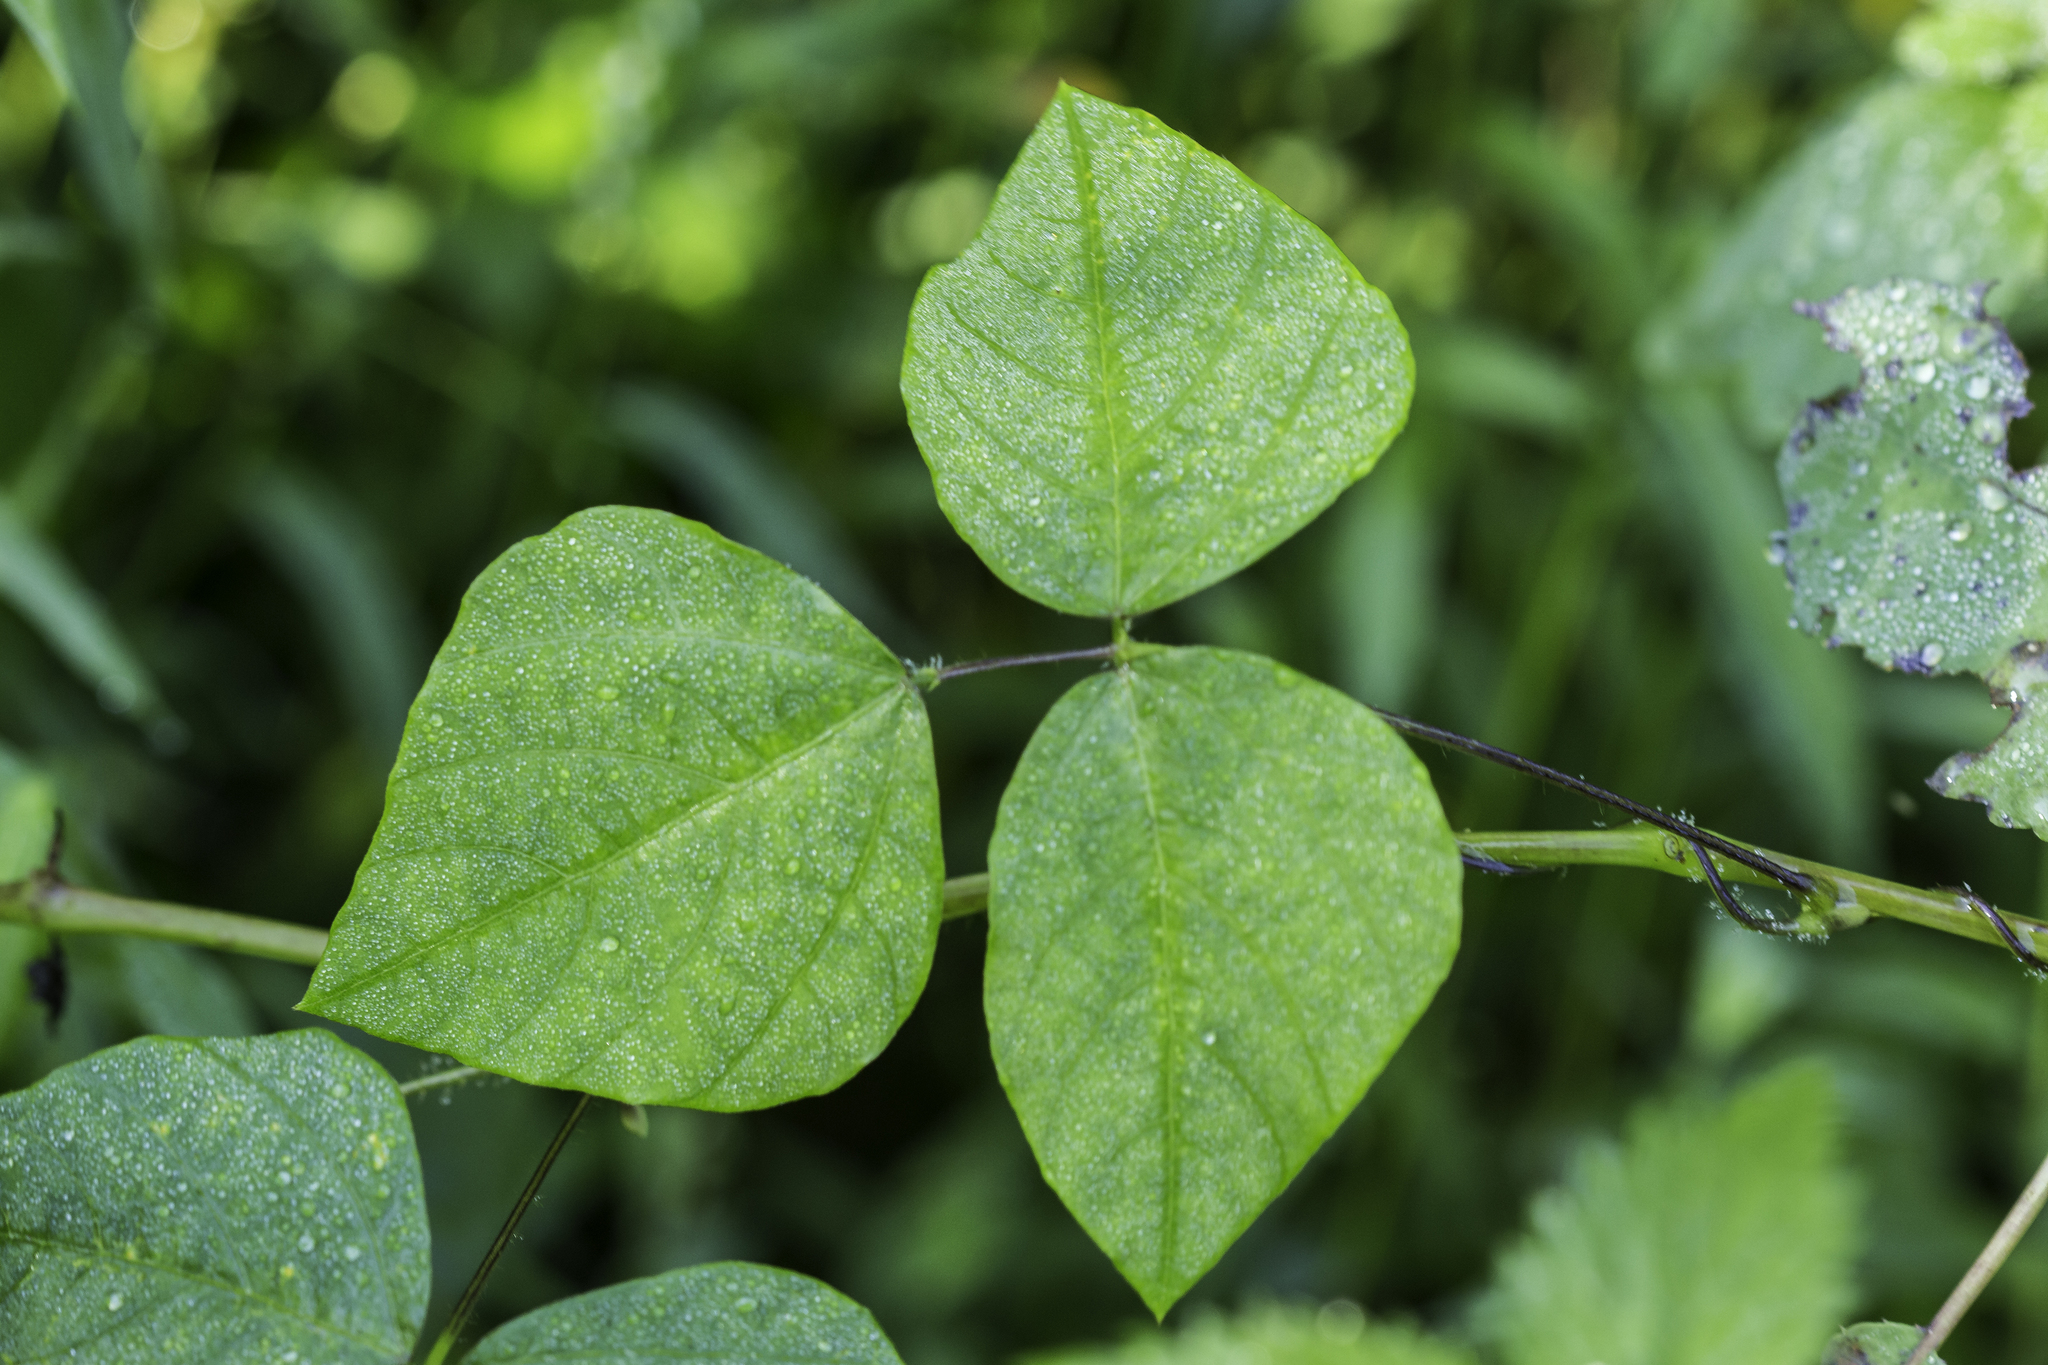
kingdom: Plantae
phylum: Tracheophyta
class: Magnoliopsida
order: Fabales
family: Fabaceae
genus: Amphicarpaea
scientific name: Amphicarpaea bracteata
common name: American hog peanut
